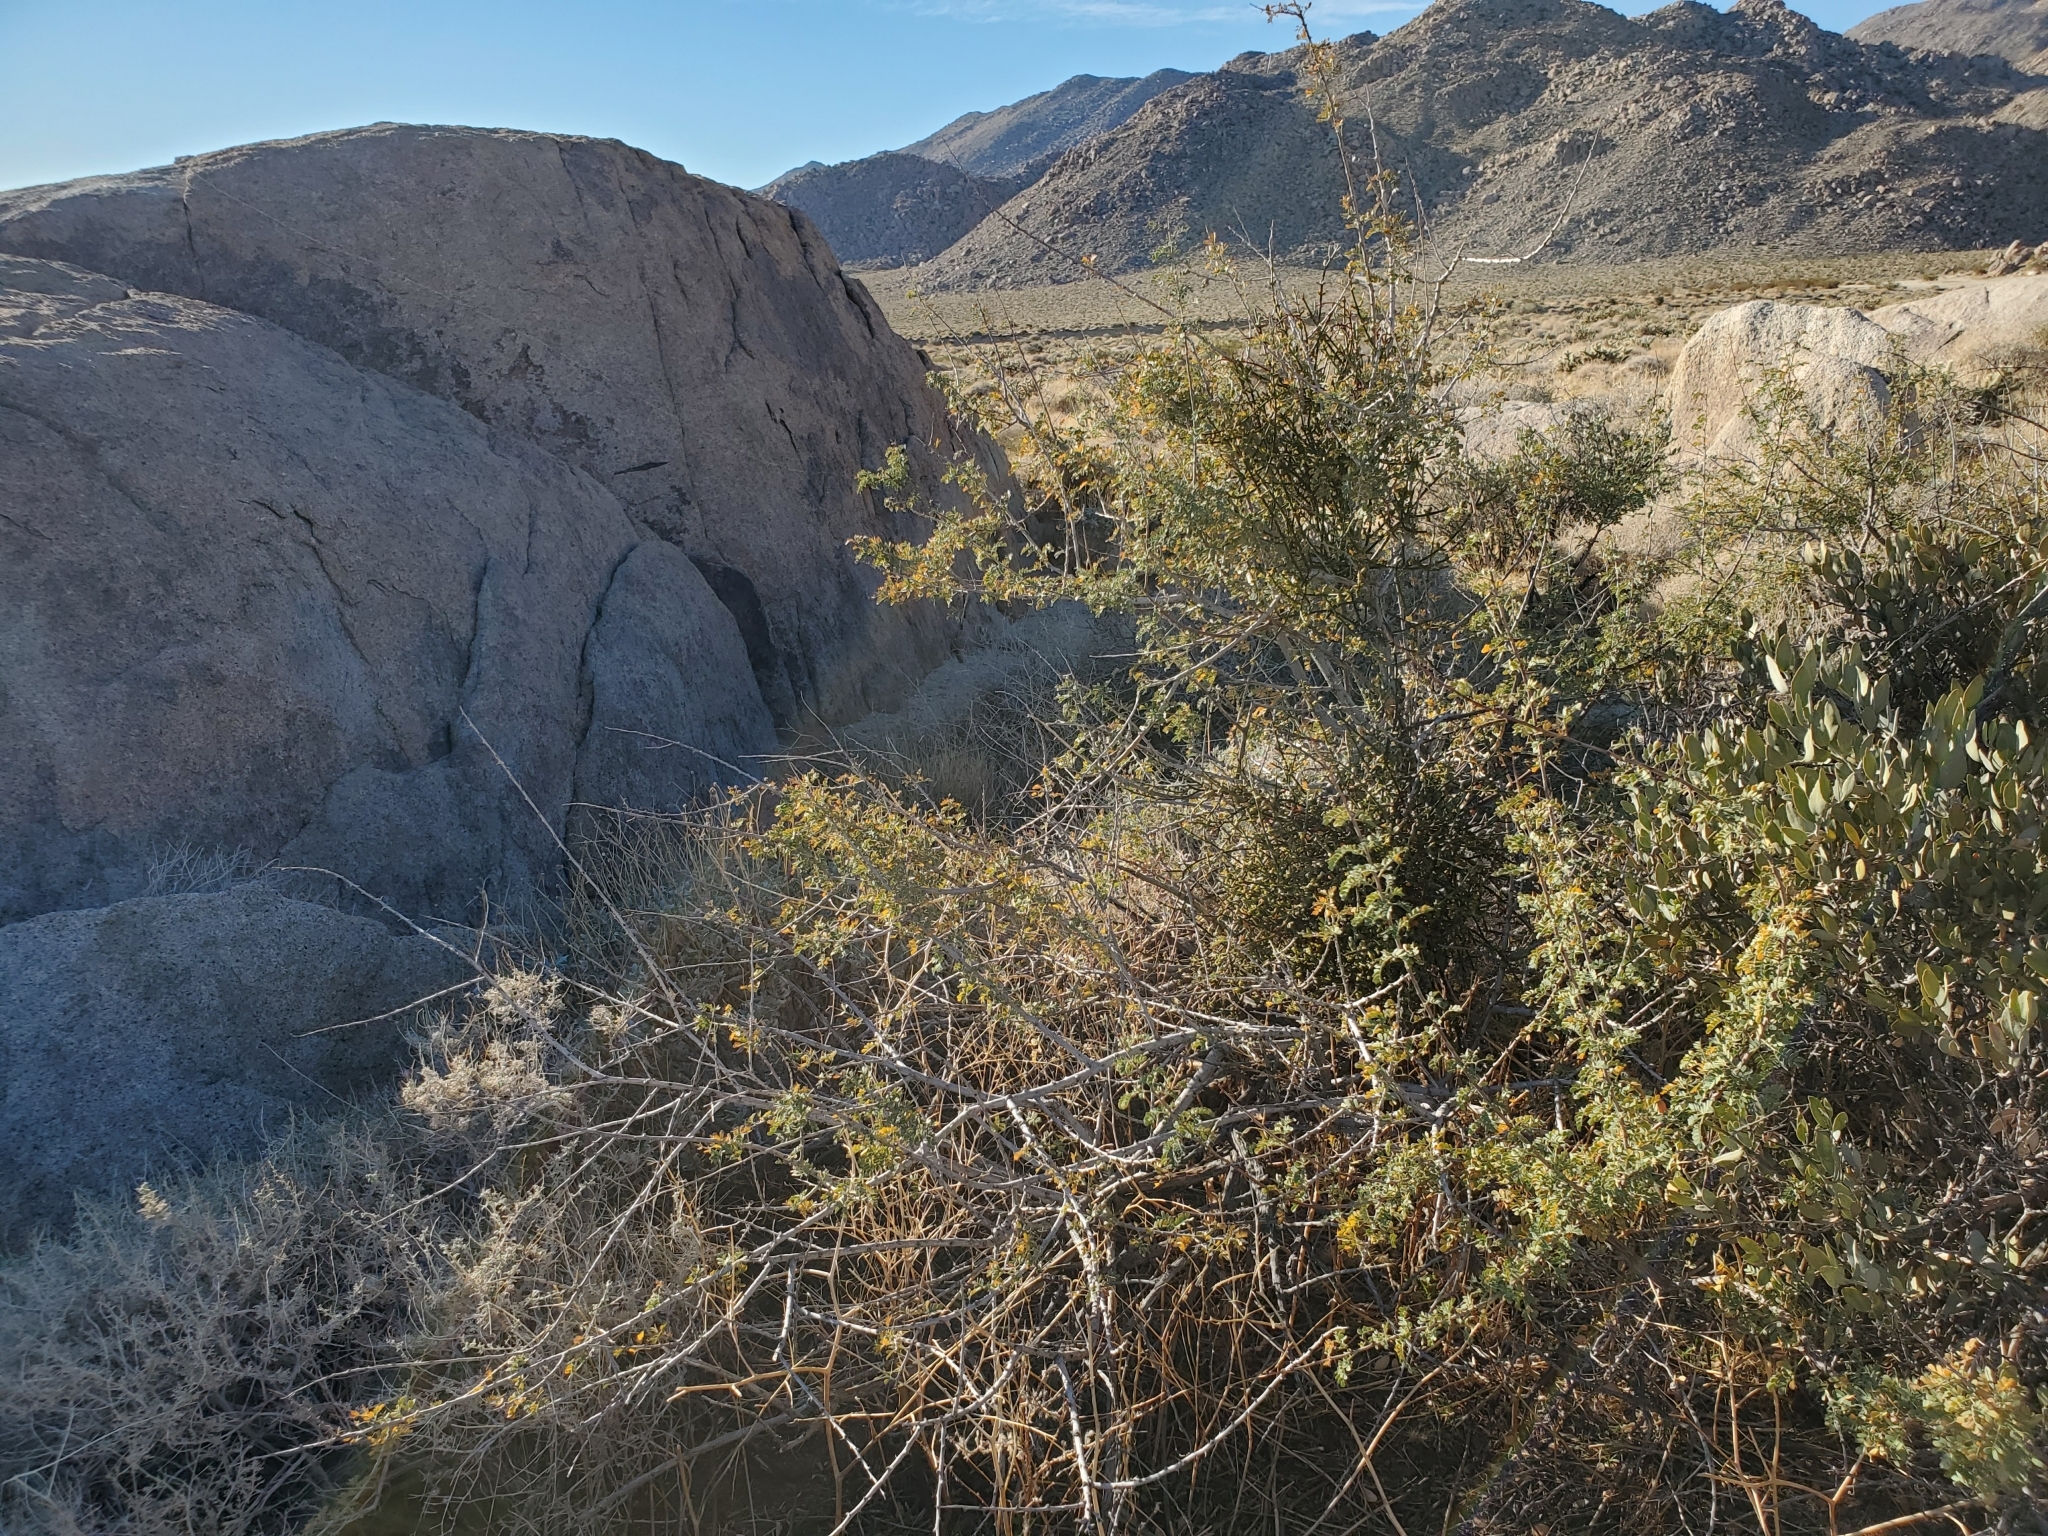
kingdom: Plantae
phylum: Tracheophyta
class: Magnoliopsida
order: Santalales
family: Viscaceae
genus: Phoradendron
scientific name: Phoradendron californicum
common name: Acacia mistletoe
